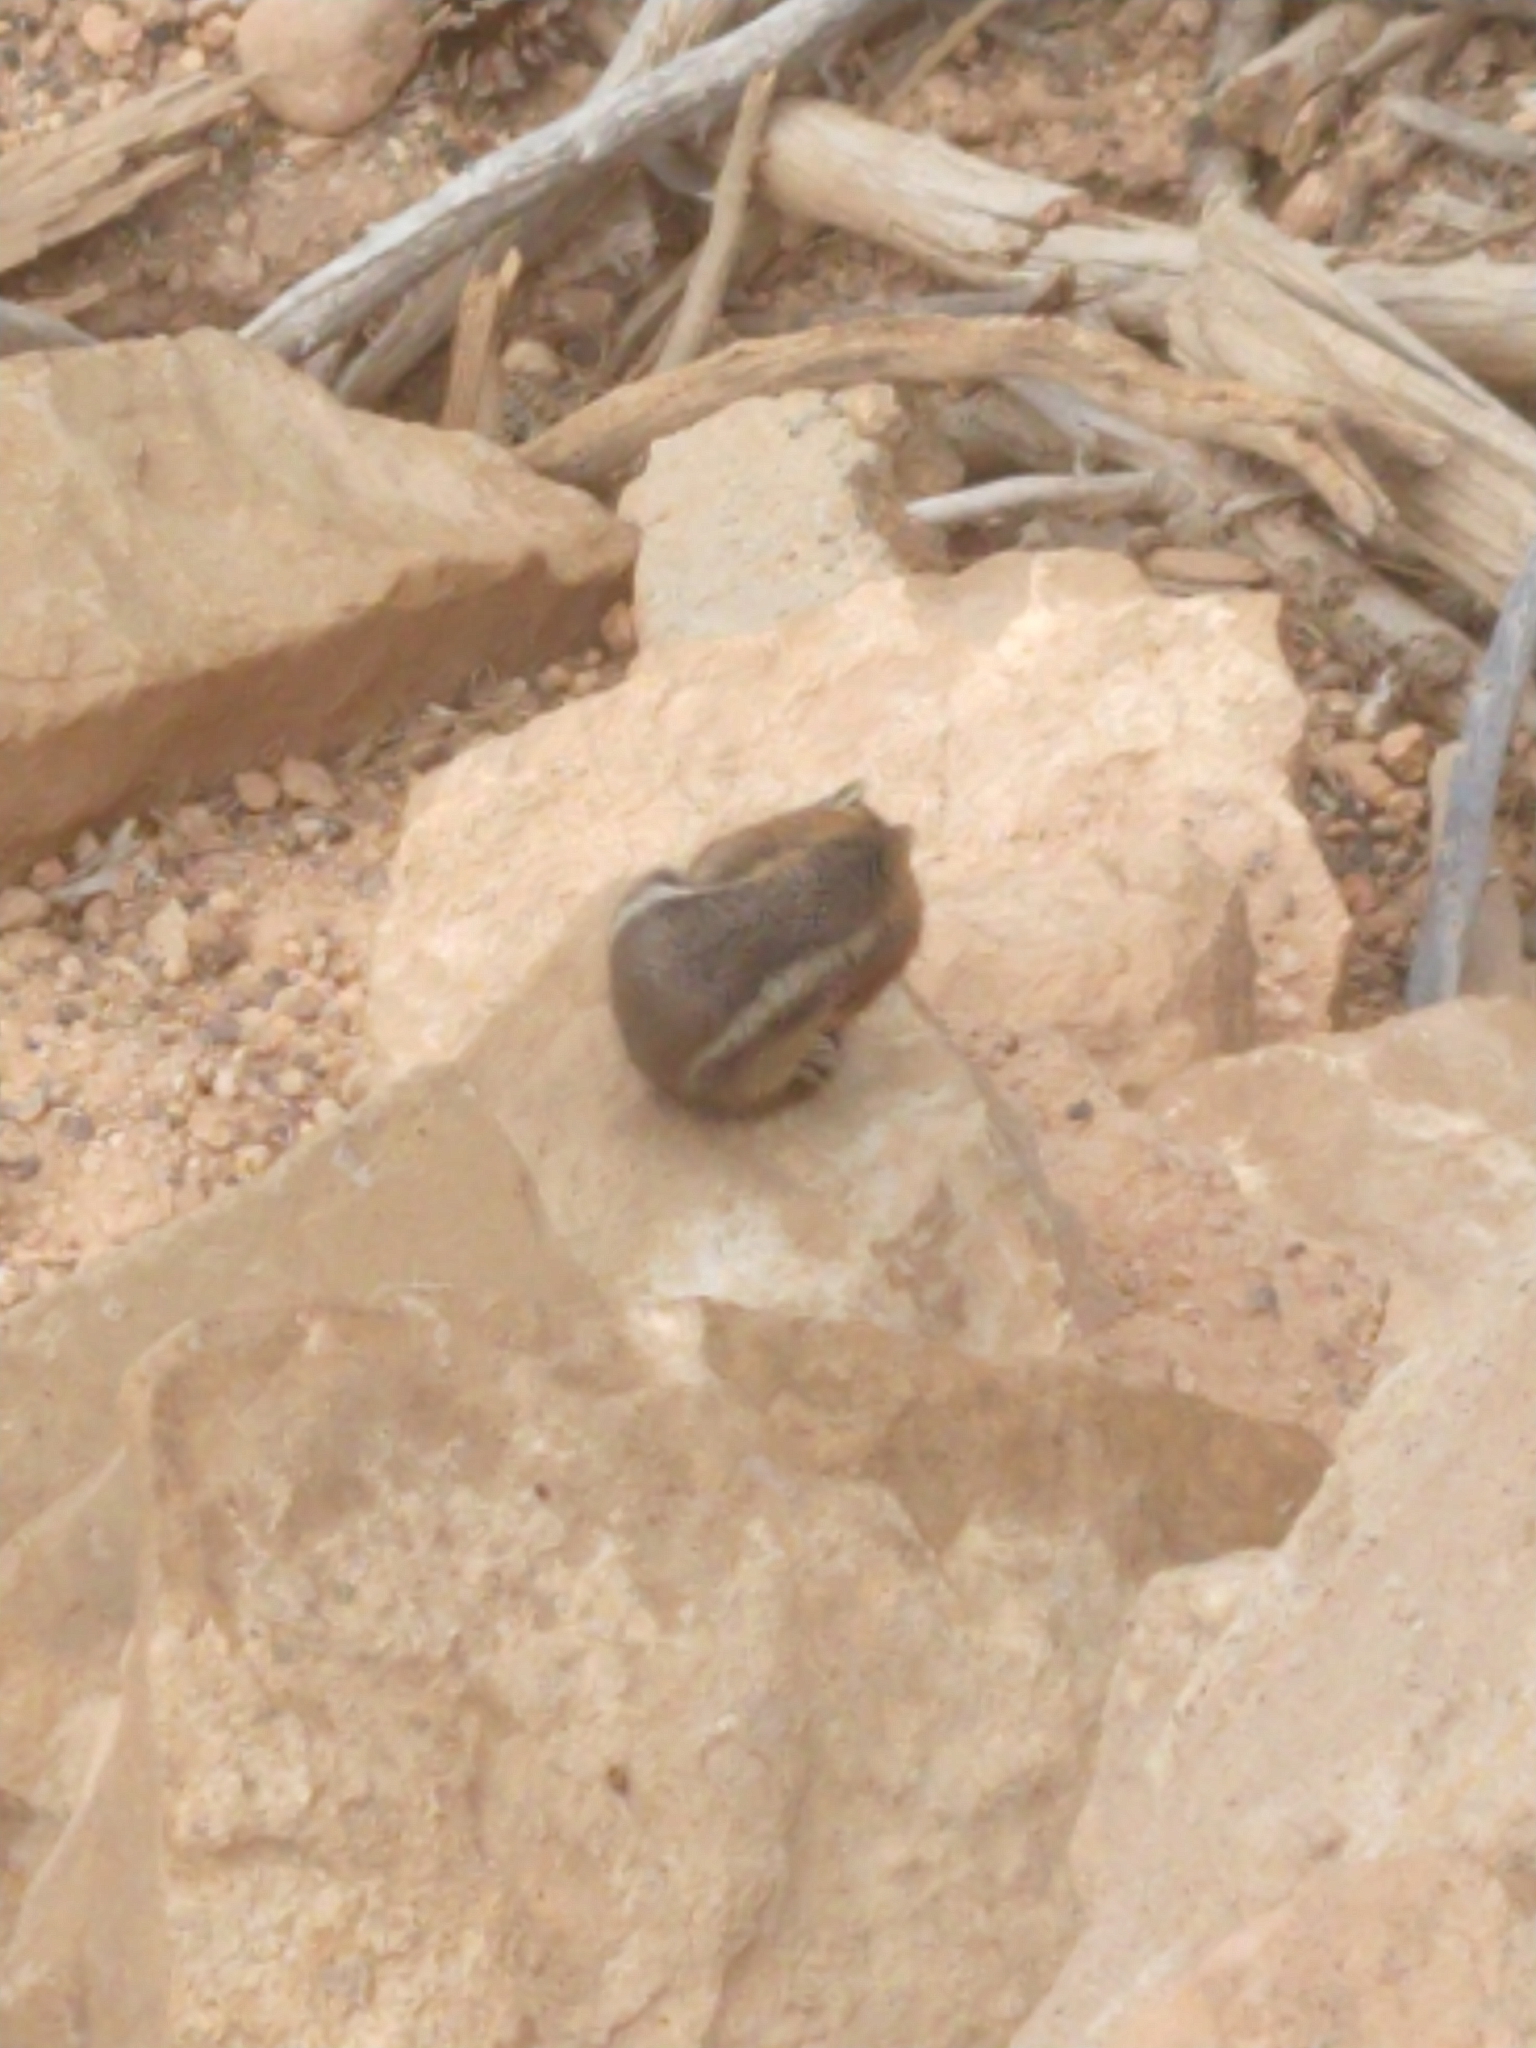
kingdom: Animalia
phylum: Chordata
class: Mammalia
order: Rodentia
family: Sciuridae
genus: Callospermophilus
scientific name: Callospermophilus lateralis
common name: Golden-mantled ground squirrel
